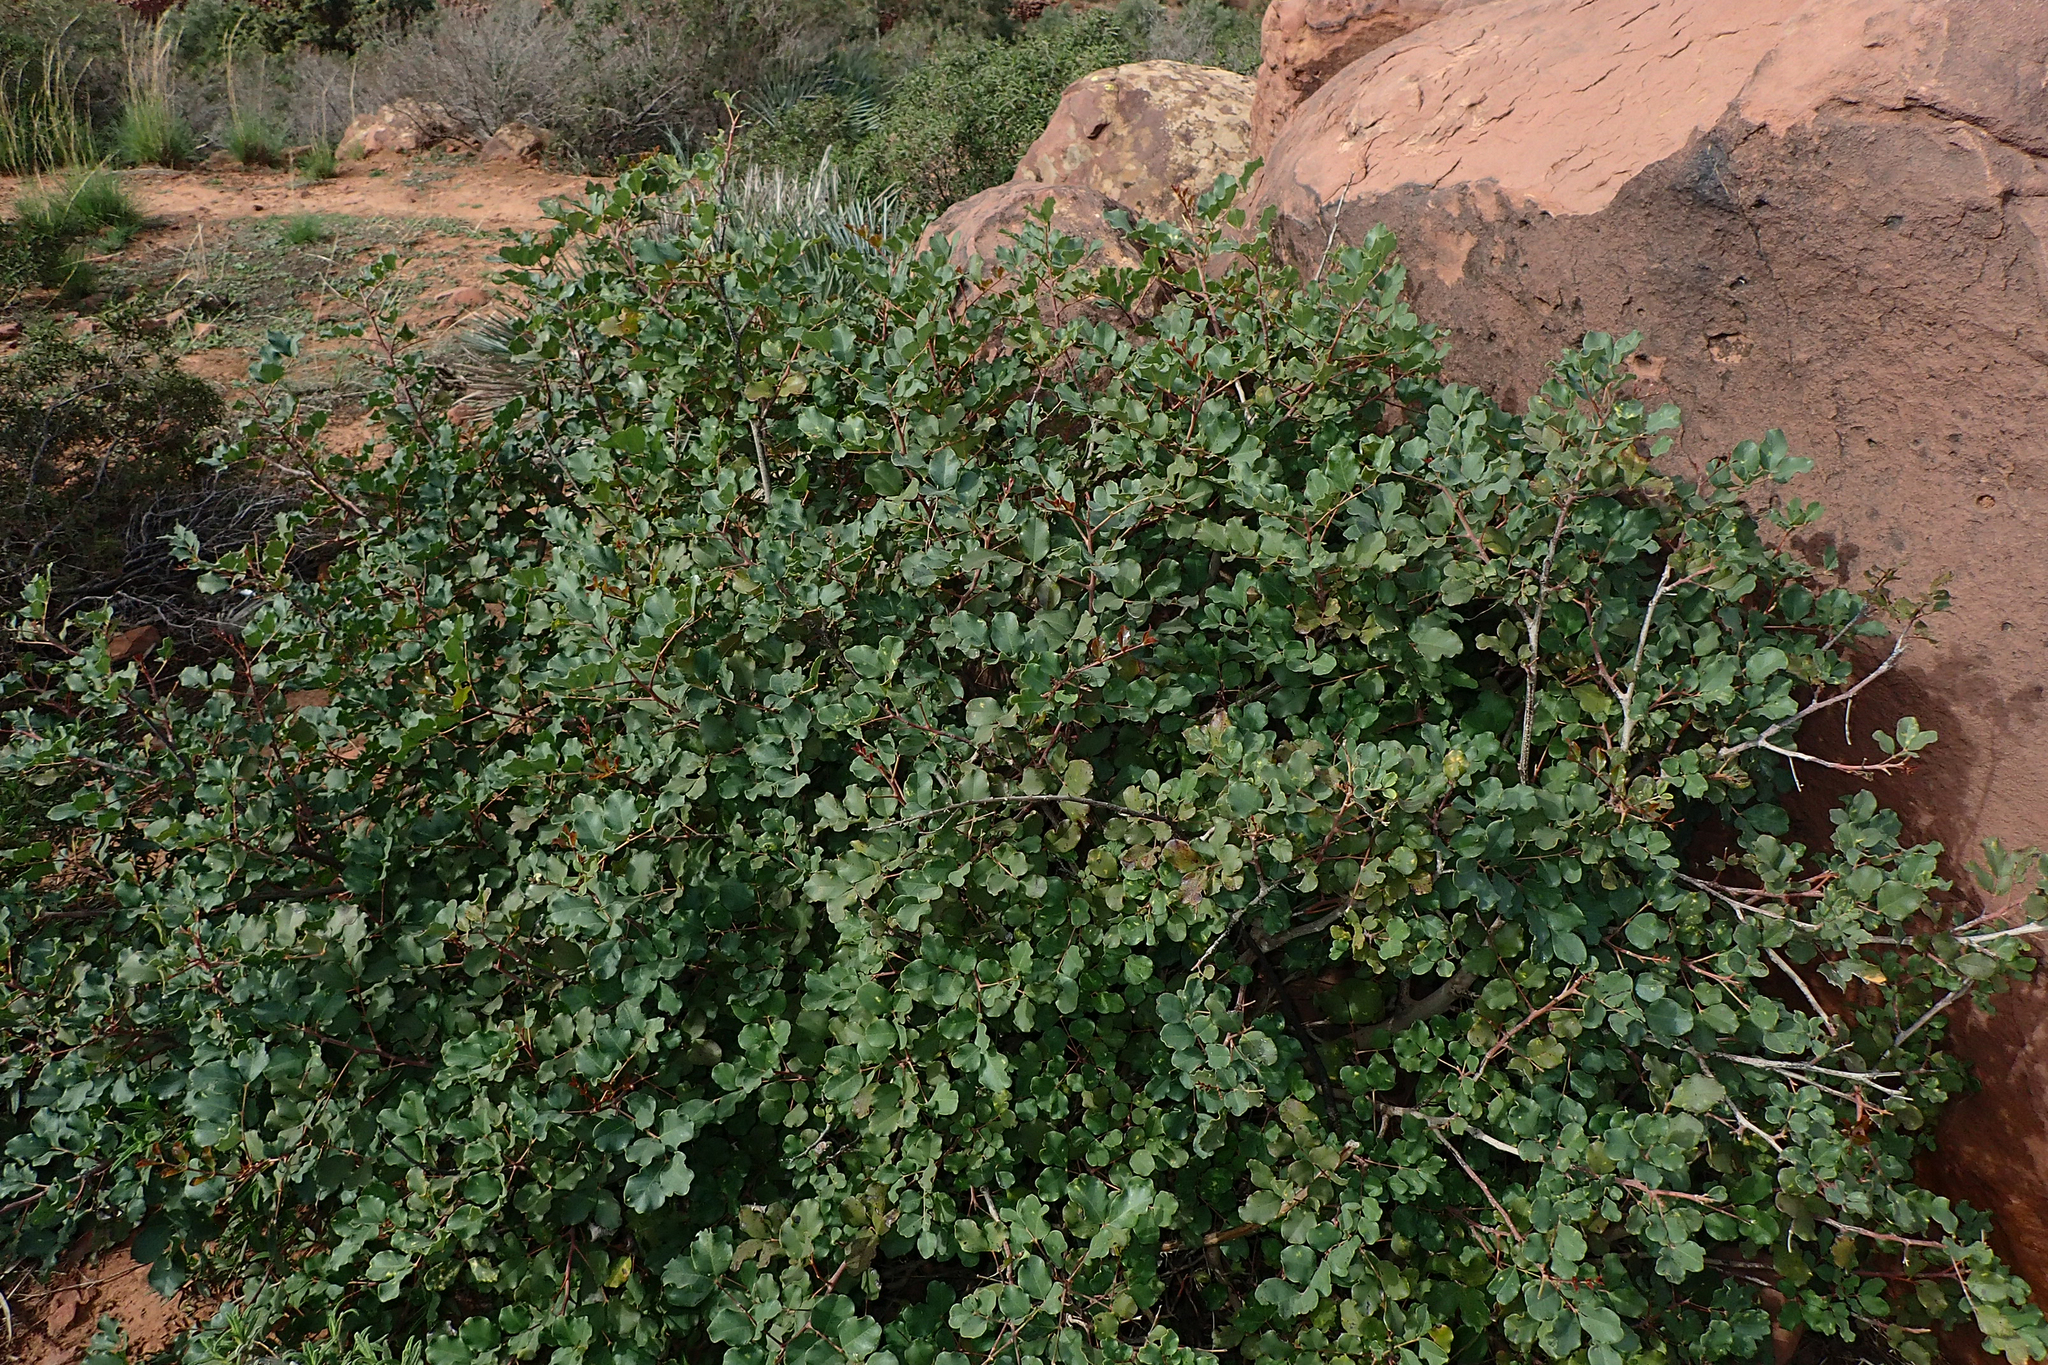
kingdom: Plantae
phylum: Tracheophyta
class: Magnoliopsida
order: Fabales
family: Fabaceae
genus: Ceratonia
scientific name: Ceratonia siliqua
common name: Carob
